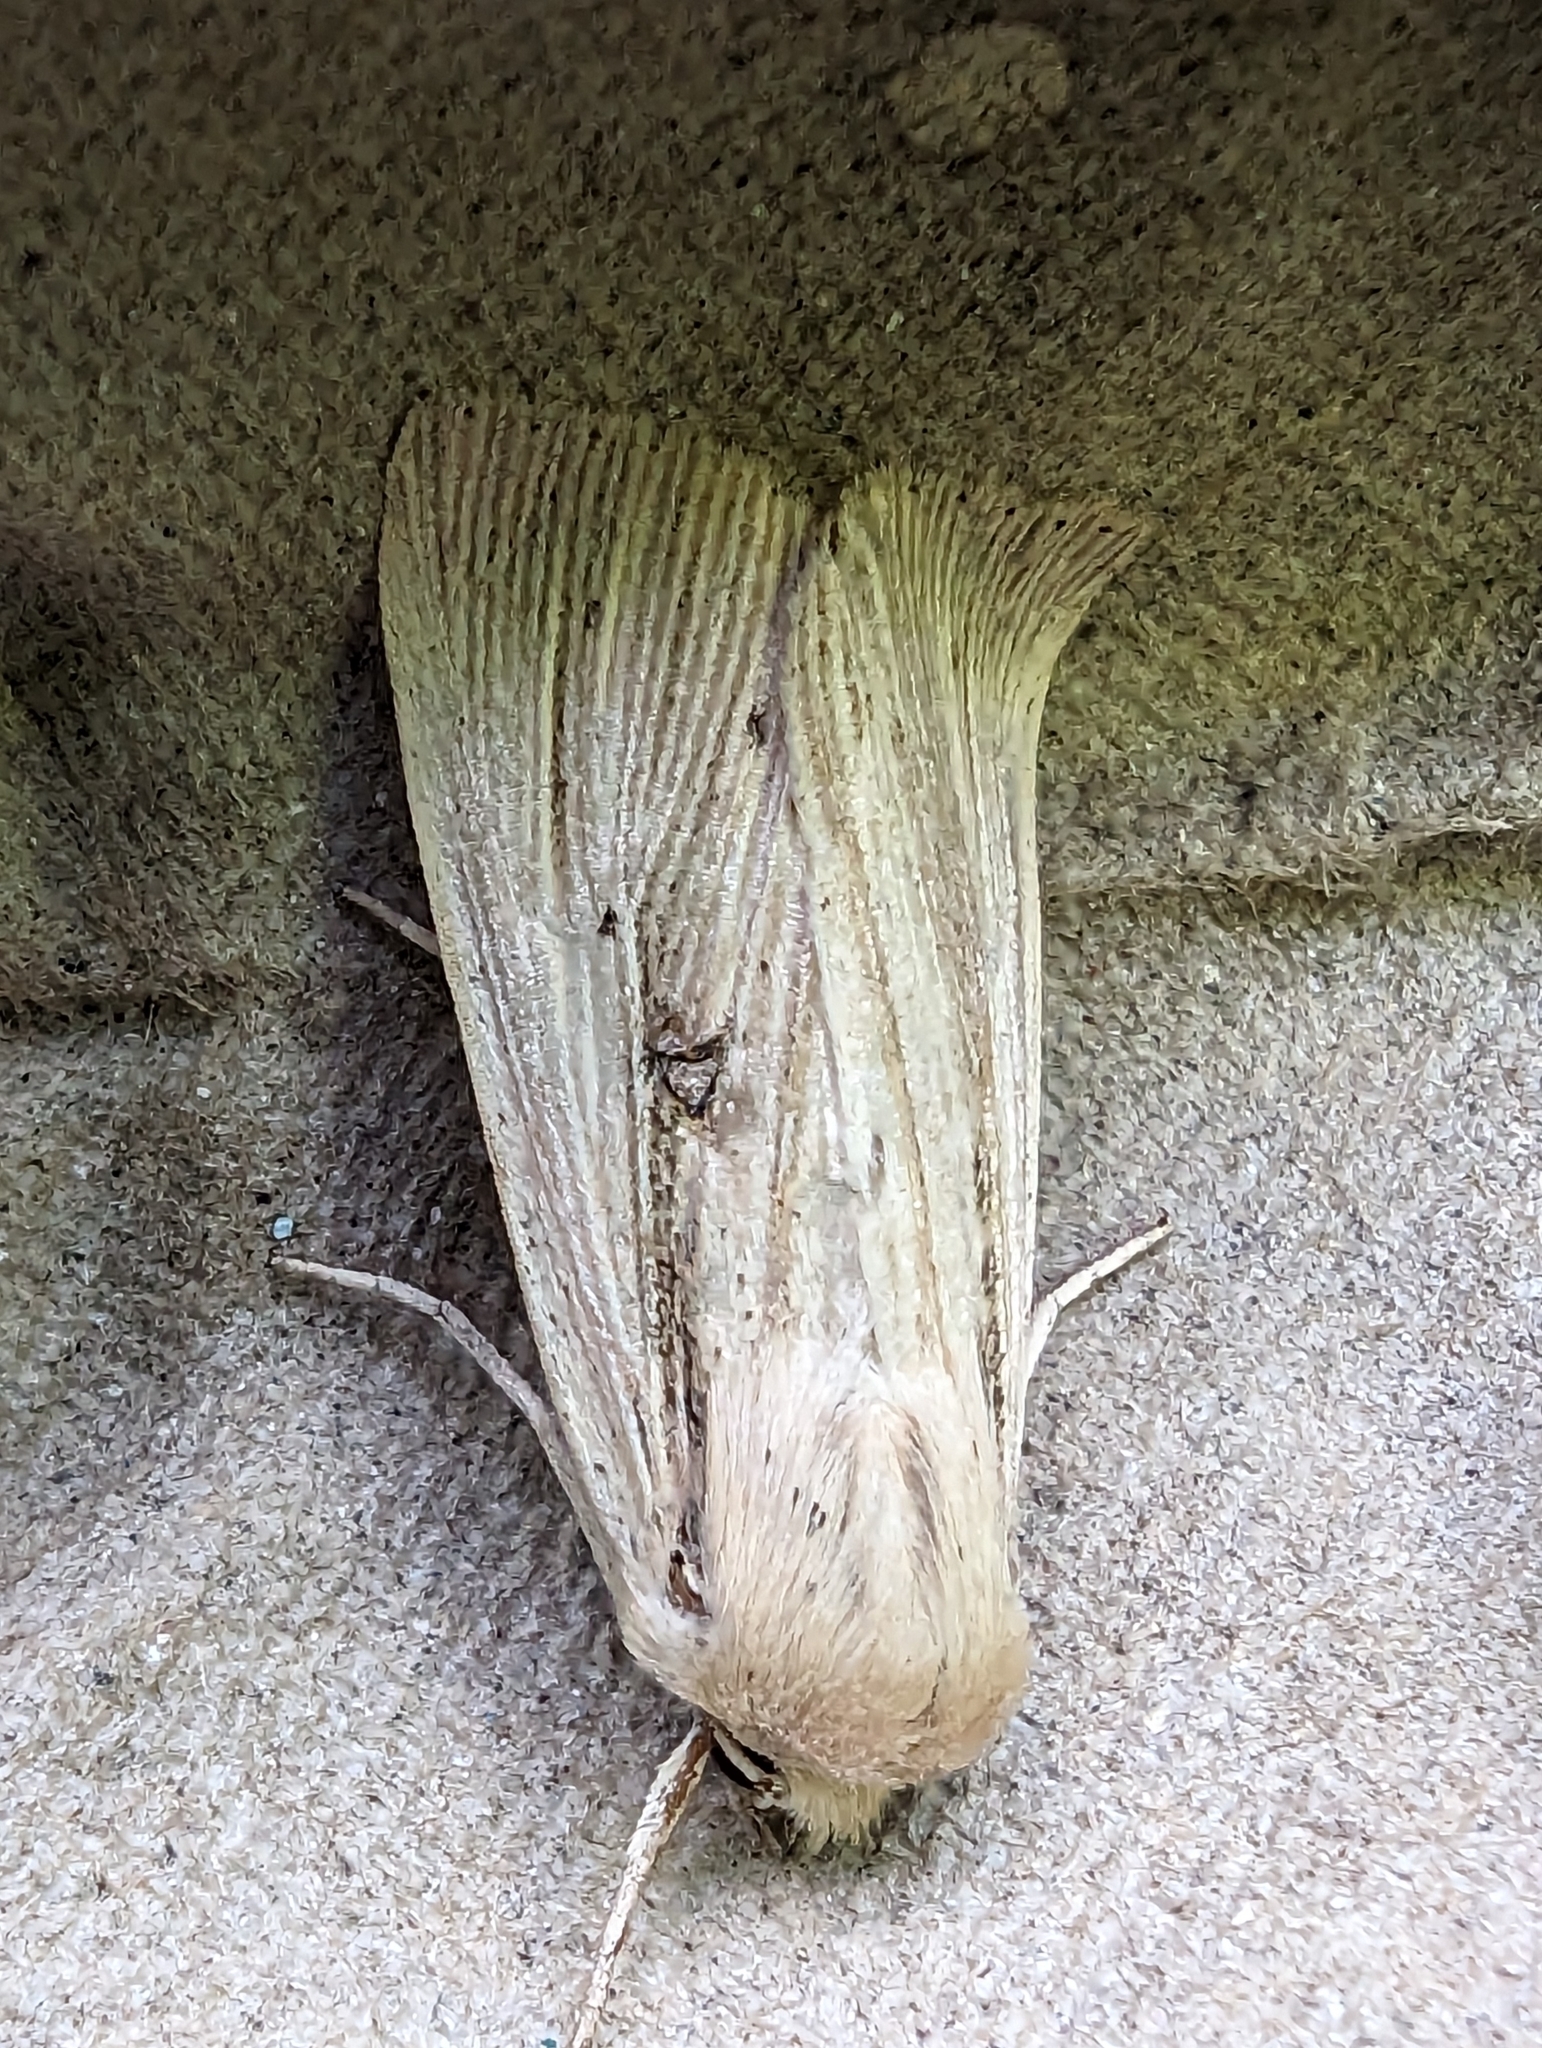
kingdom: Animalia
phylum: Arthropoda
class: Insecta
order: Lepidoptera
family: Noctuidae
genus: Mythimna
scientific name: Mythimna straminea
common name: Southern wainscot
